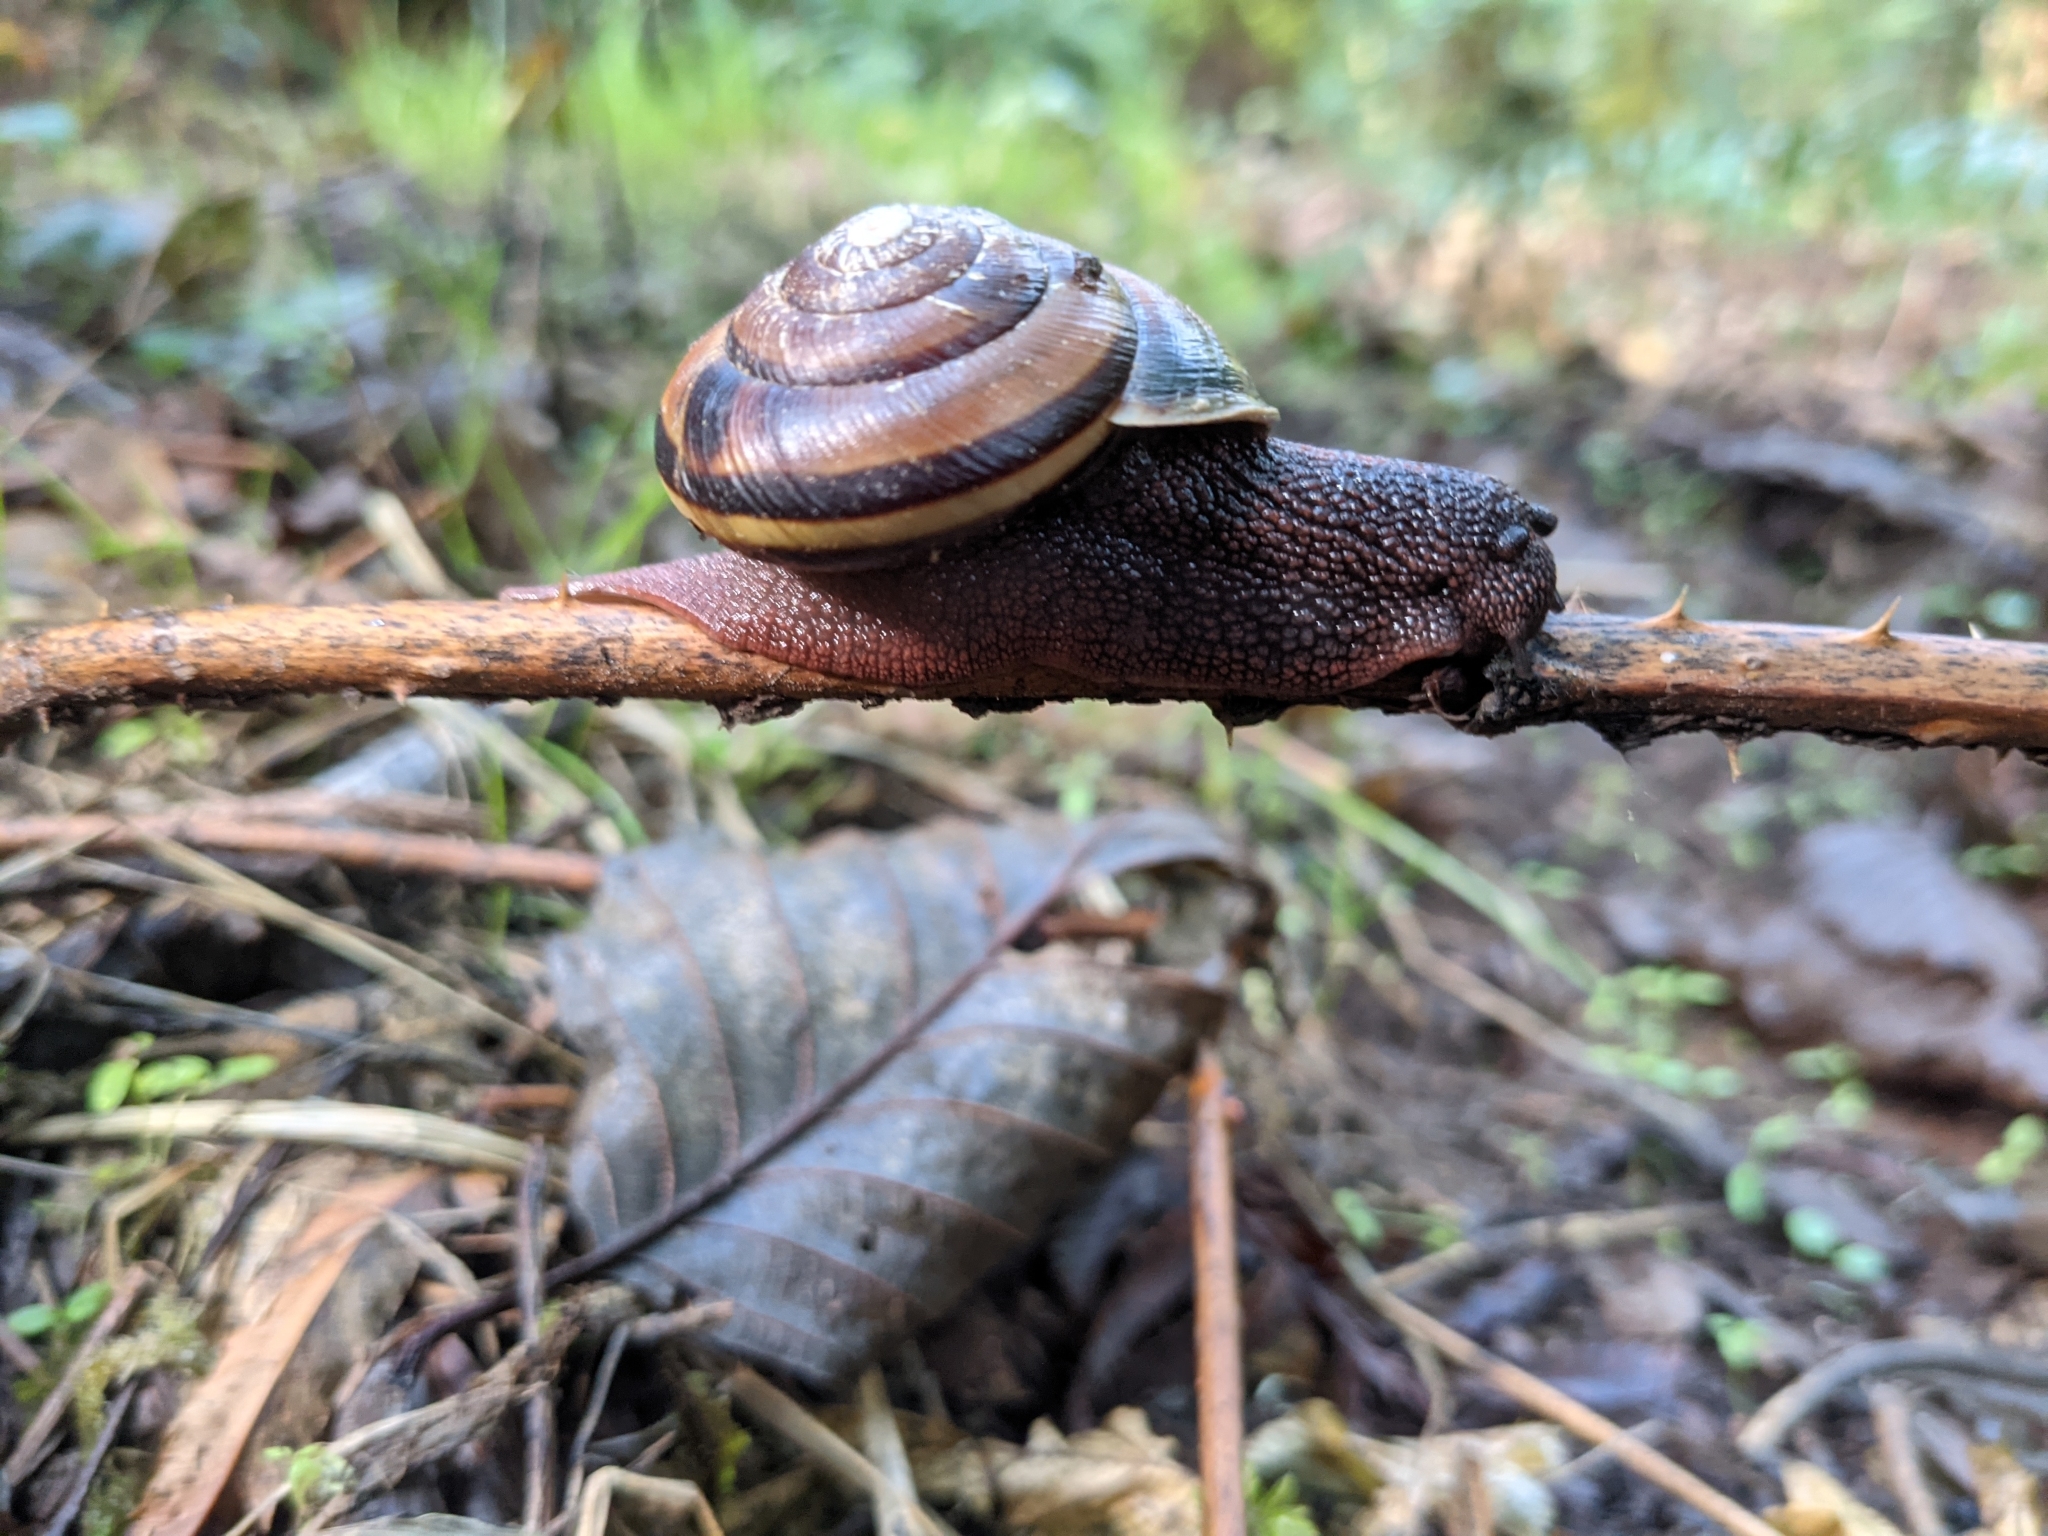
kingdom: Animalia
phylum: Mollusca
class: Gastropoda
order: Stylommatophora
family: Xanthonychidae
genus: Monadenia
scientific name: Monadenia fidelis
